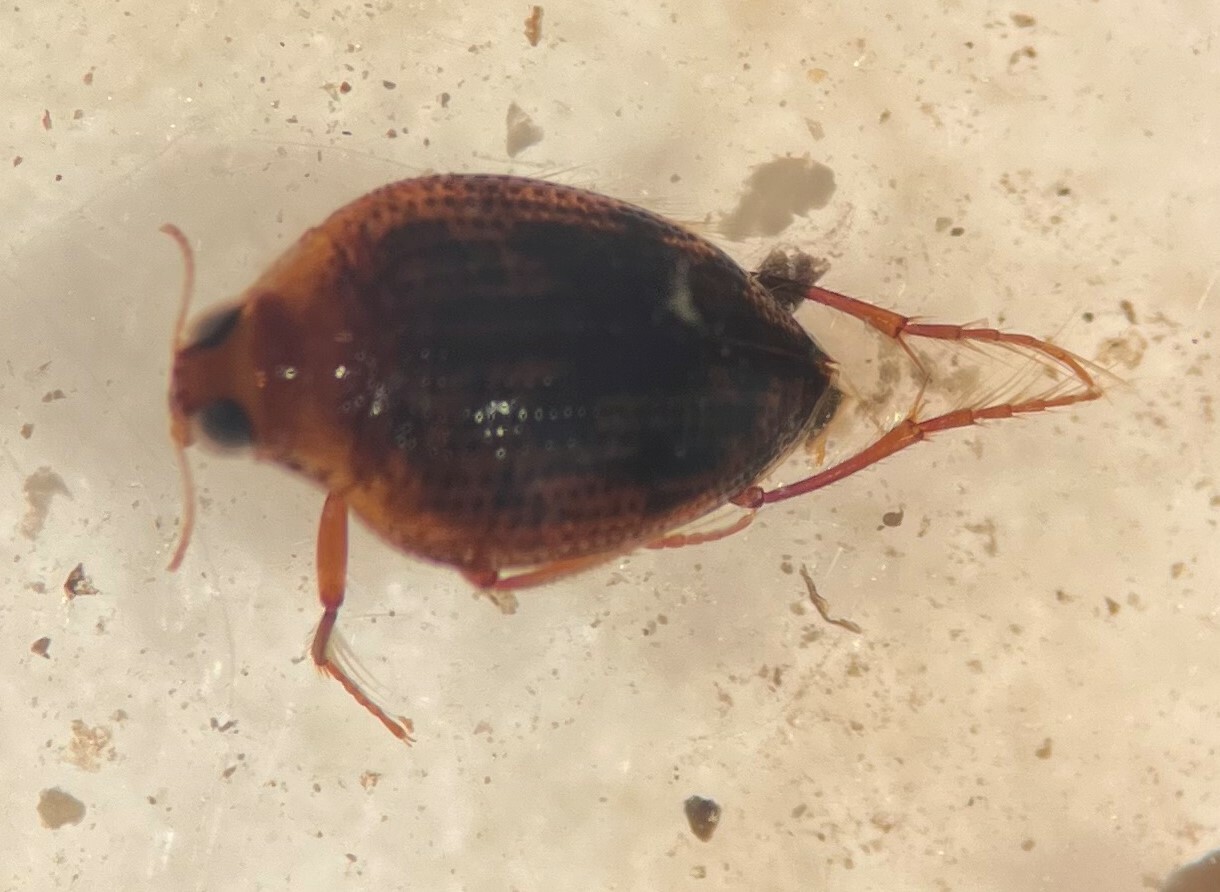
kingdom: Animalia
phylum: Arthropoda
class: Insecta
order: Coleoptera
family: Haliplidae
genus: Haliplus
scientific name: Haliplus tumidus
